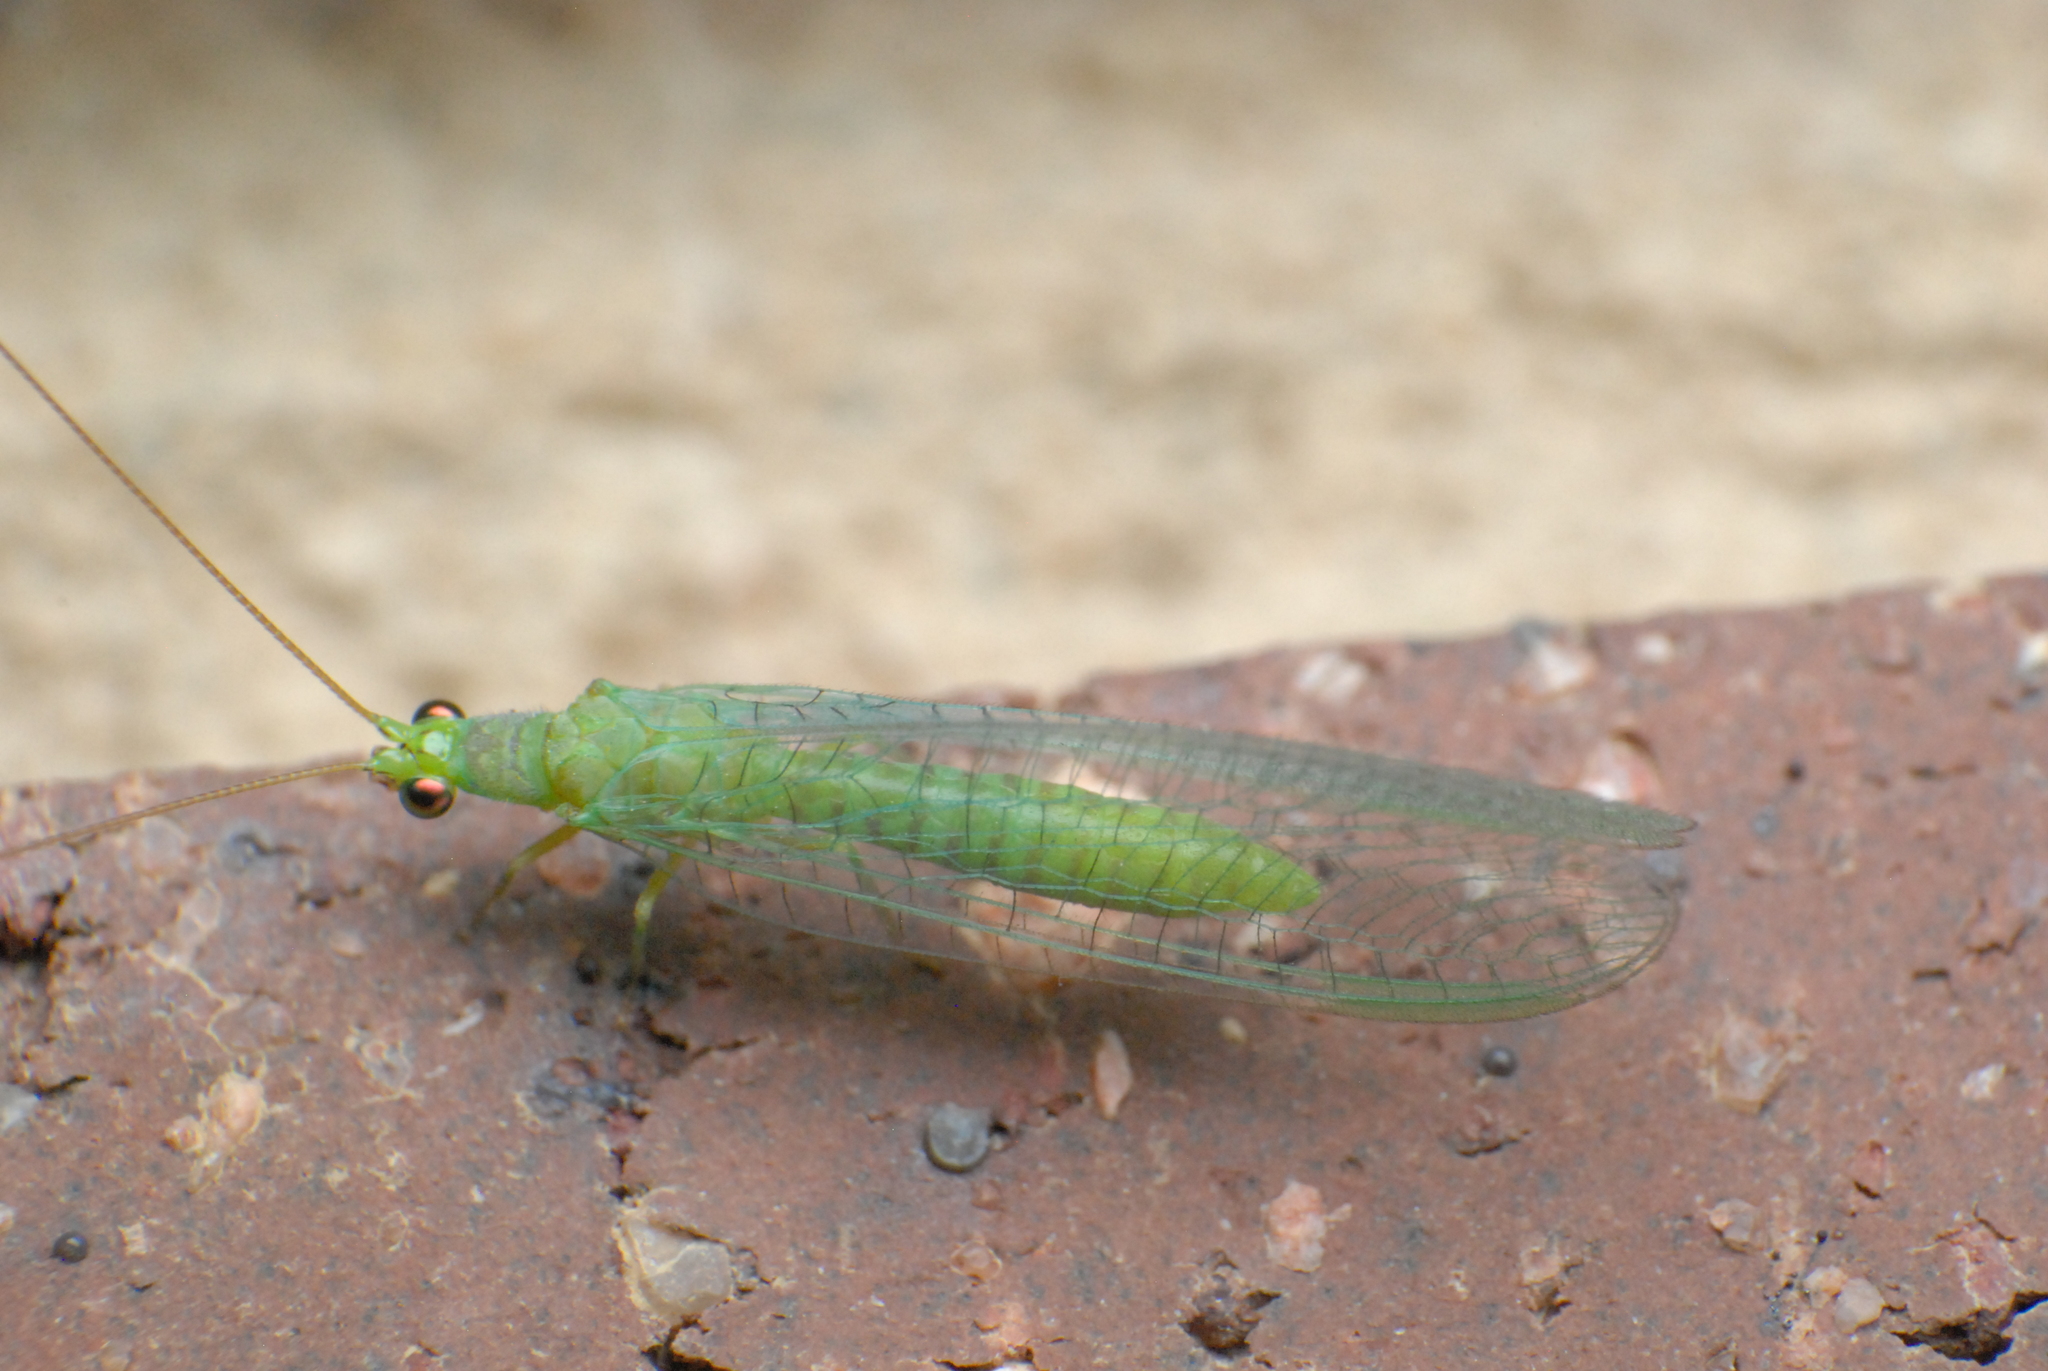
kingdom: Animalia
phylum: Arthropoda
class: Insecta
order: Neuroptera
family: Chrysopidae
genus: Mallada
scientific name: Mallada signatus
